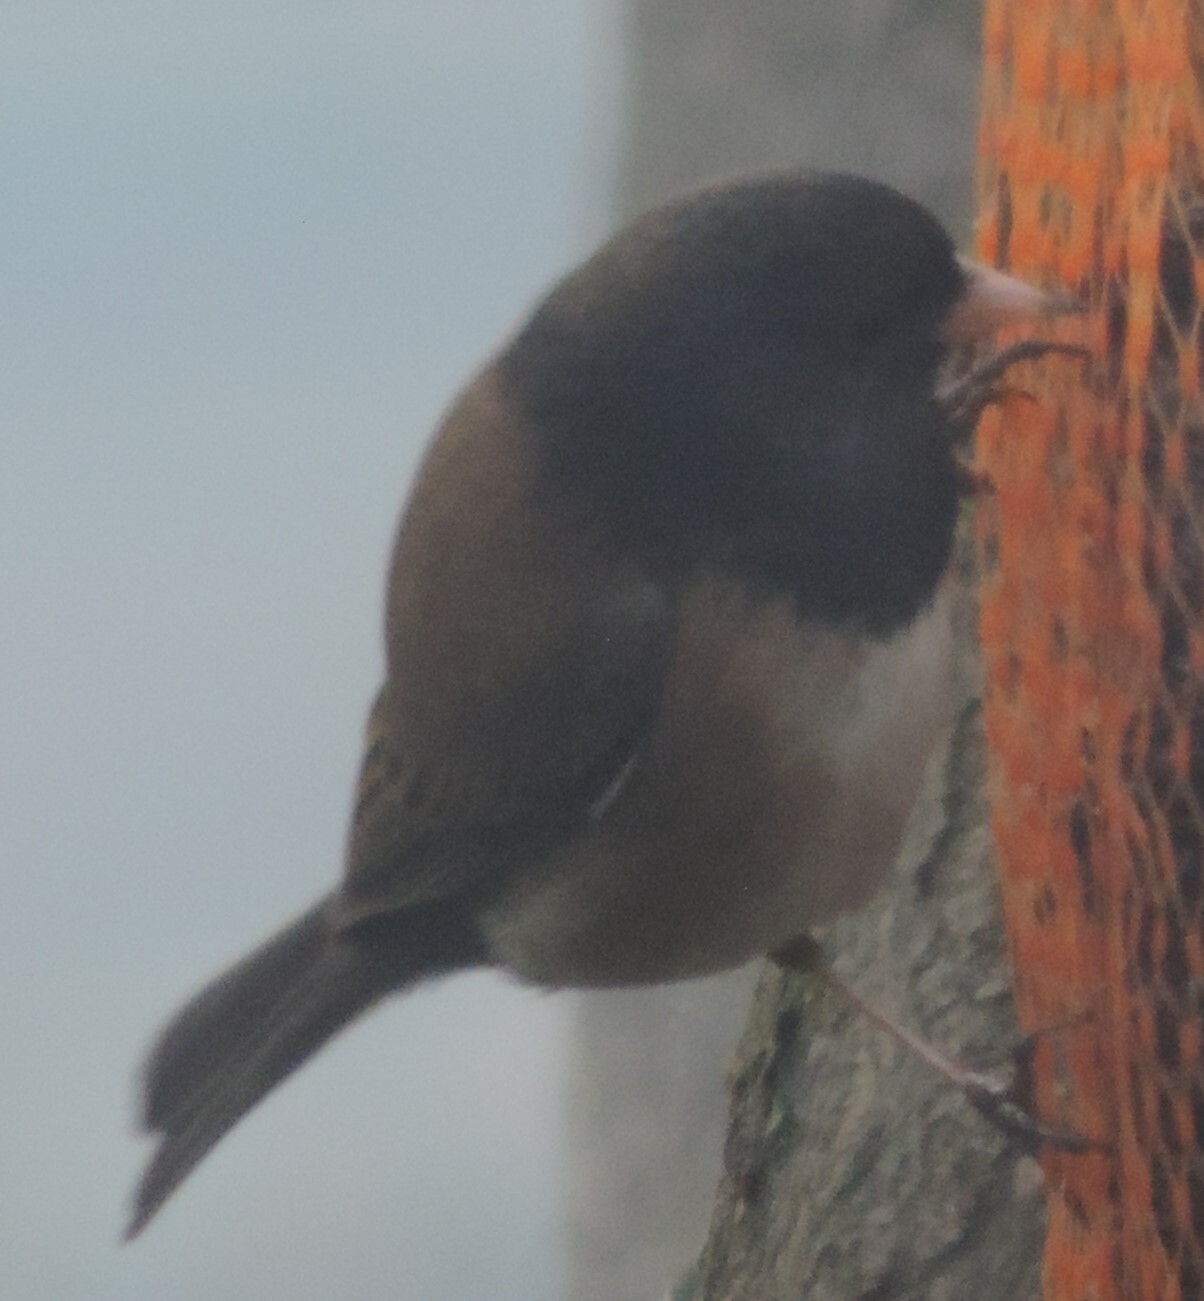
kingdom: Animalia
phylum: Chordata
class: Aves
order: Passeriformes
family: Passerellidae
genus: Junco
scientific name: Junco hyemalis
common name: Dark-eyed junco
